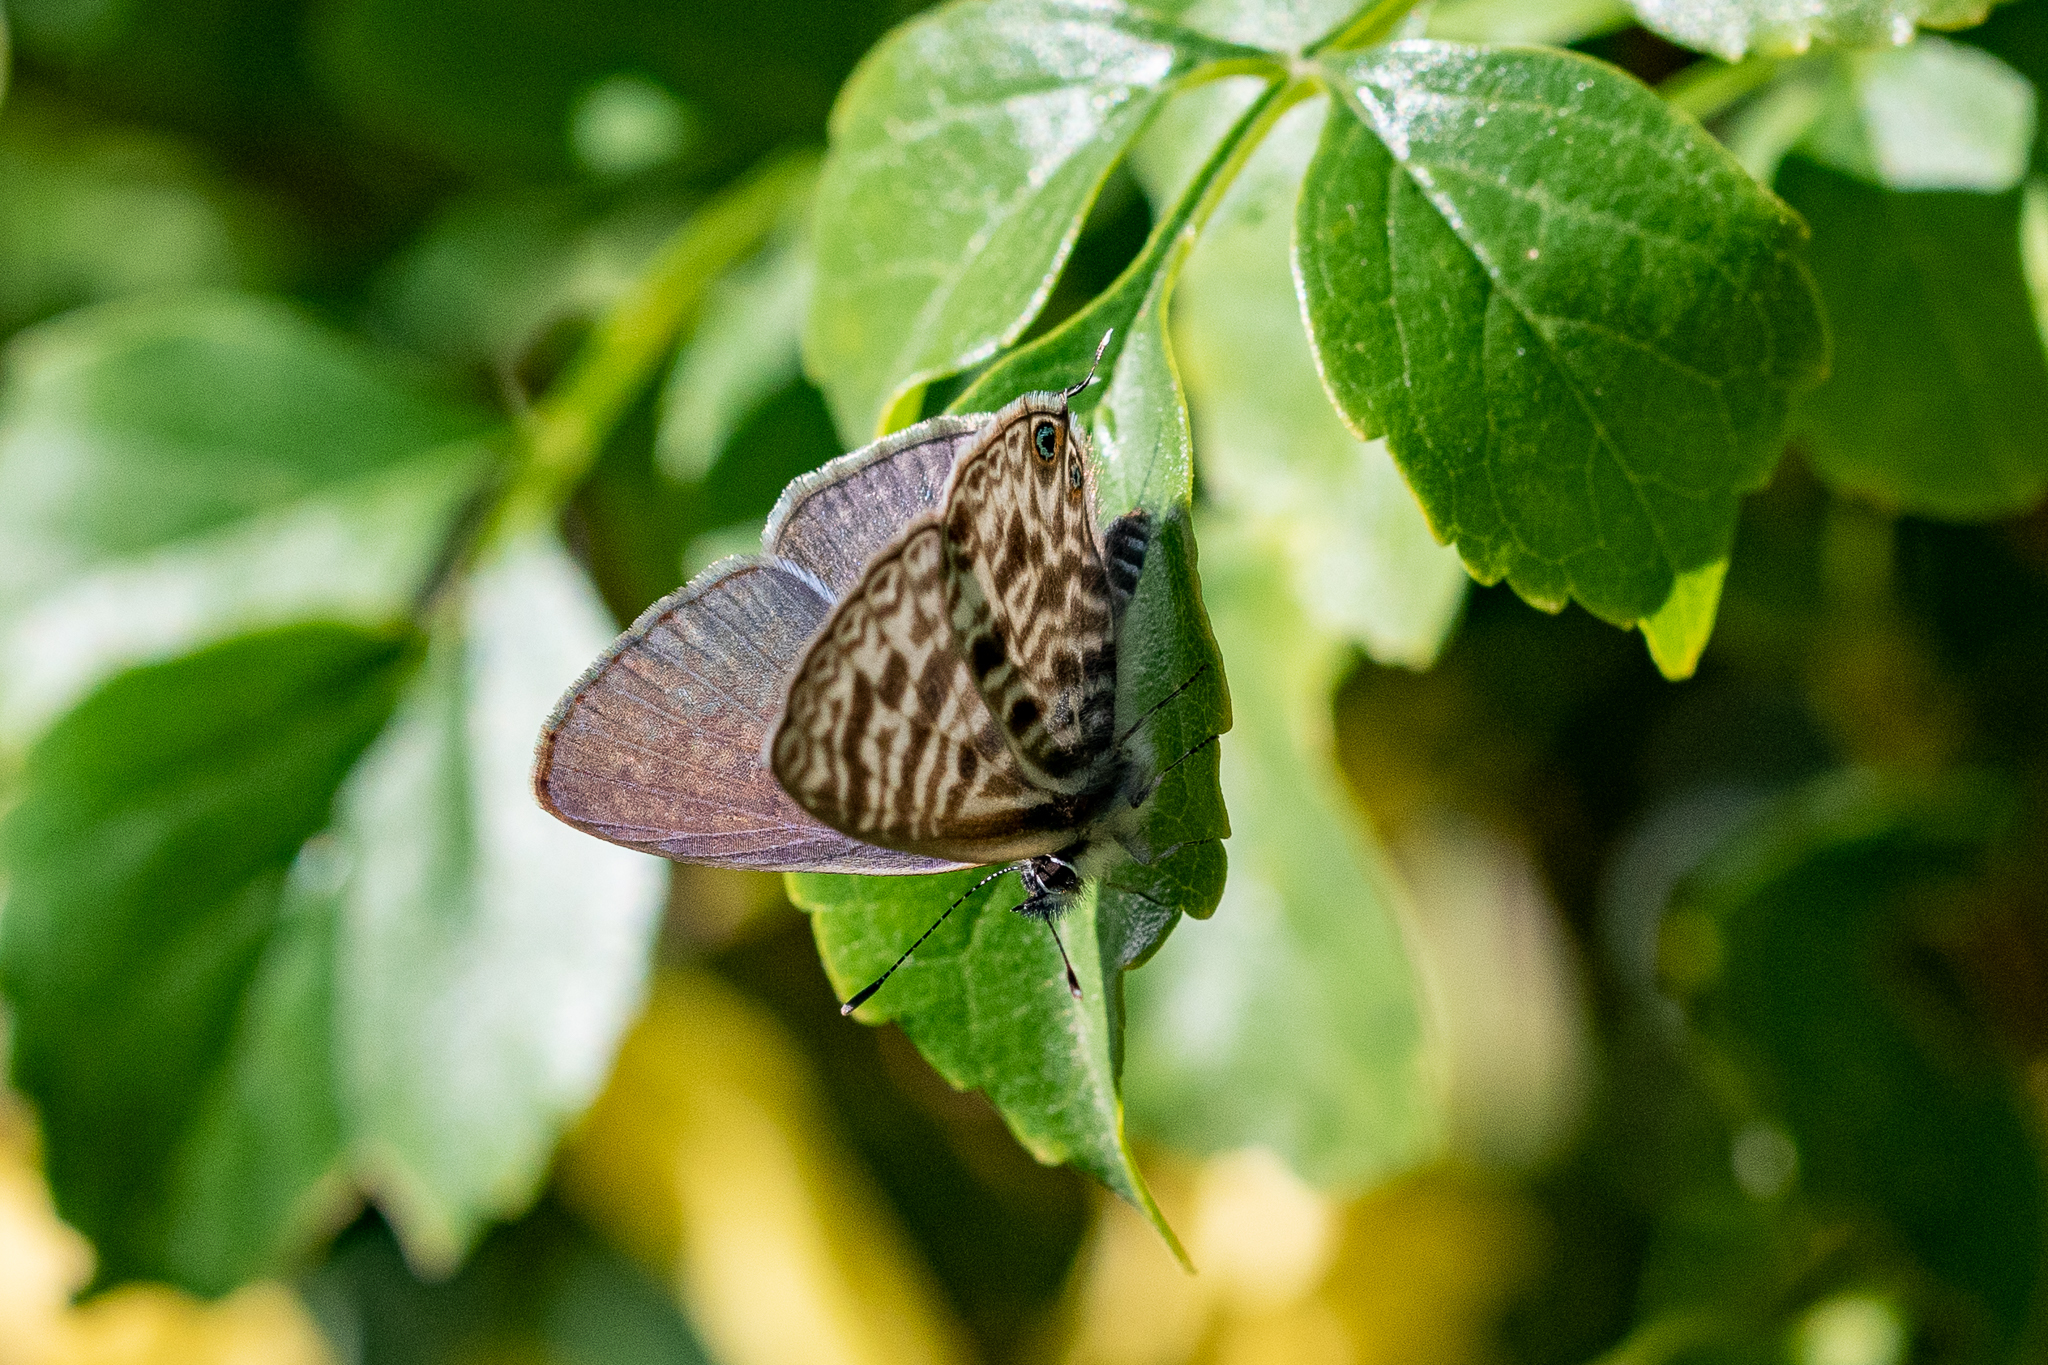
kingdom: Animalia
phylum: Arthropoda
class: Insecta
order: Lepidoptera
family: Lycaenidae
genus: Leptotes
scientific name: Leptotes
